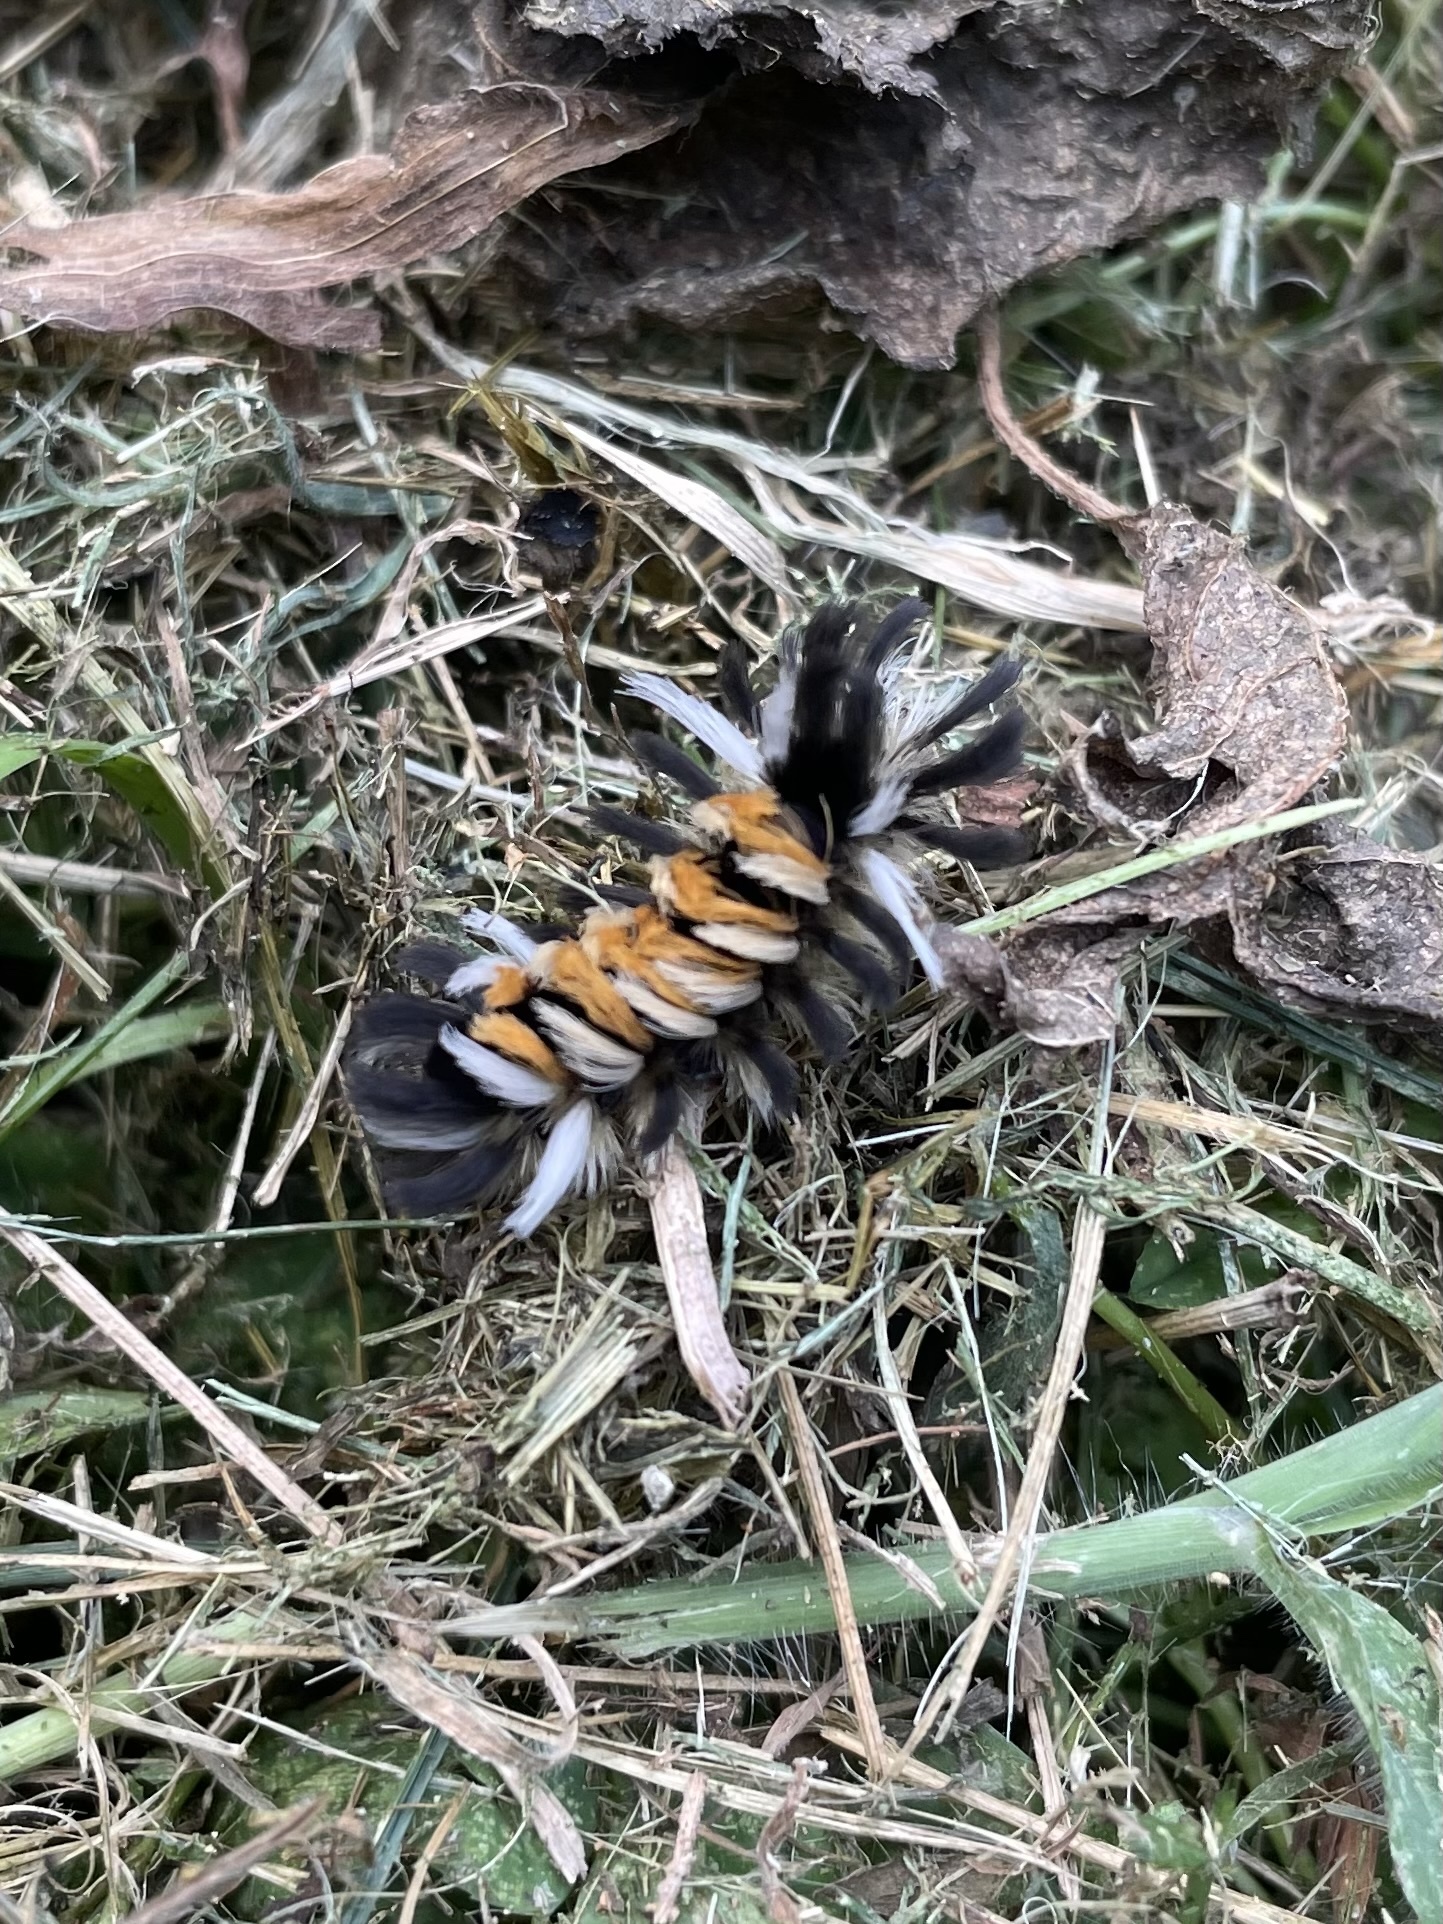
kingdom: Animalia
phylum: Arthropoda
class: Insecta
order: Lepidoptera
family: Erebidae
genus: Euchaetes
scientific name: Euchaetes egle
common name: Milkweed tussock moth
